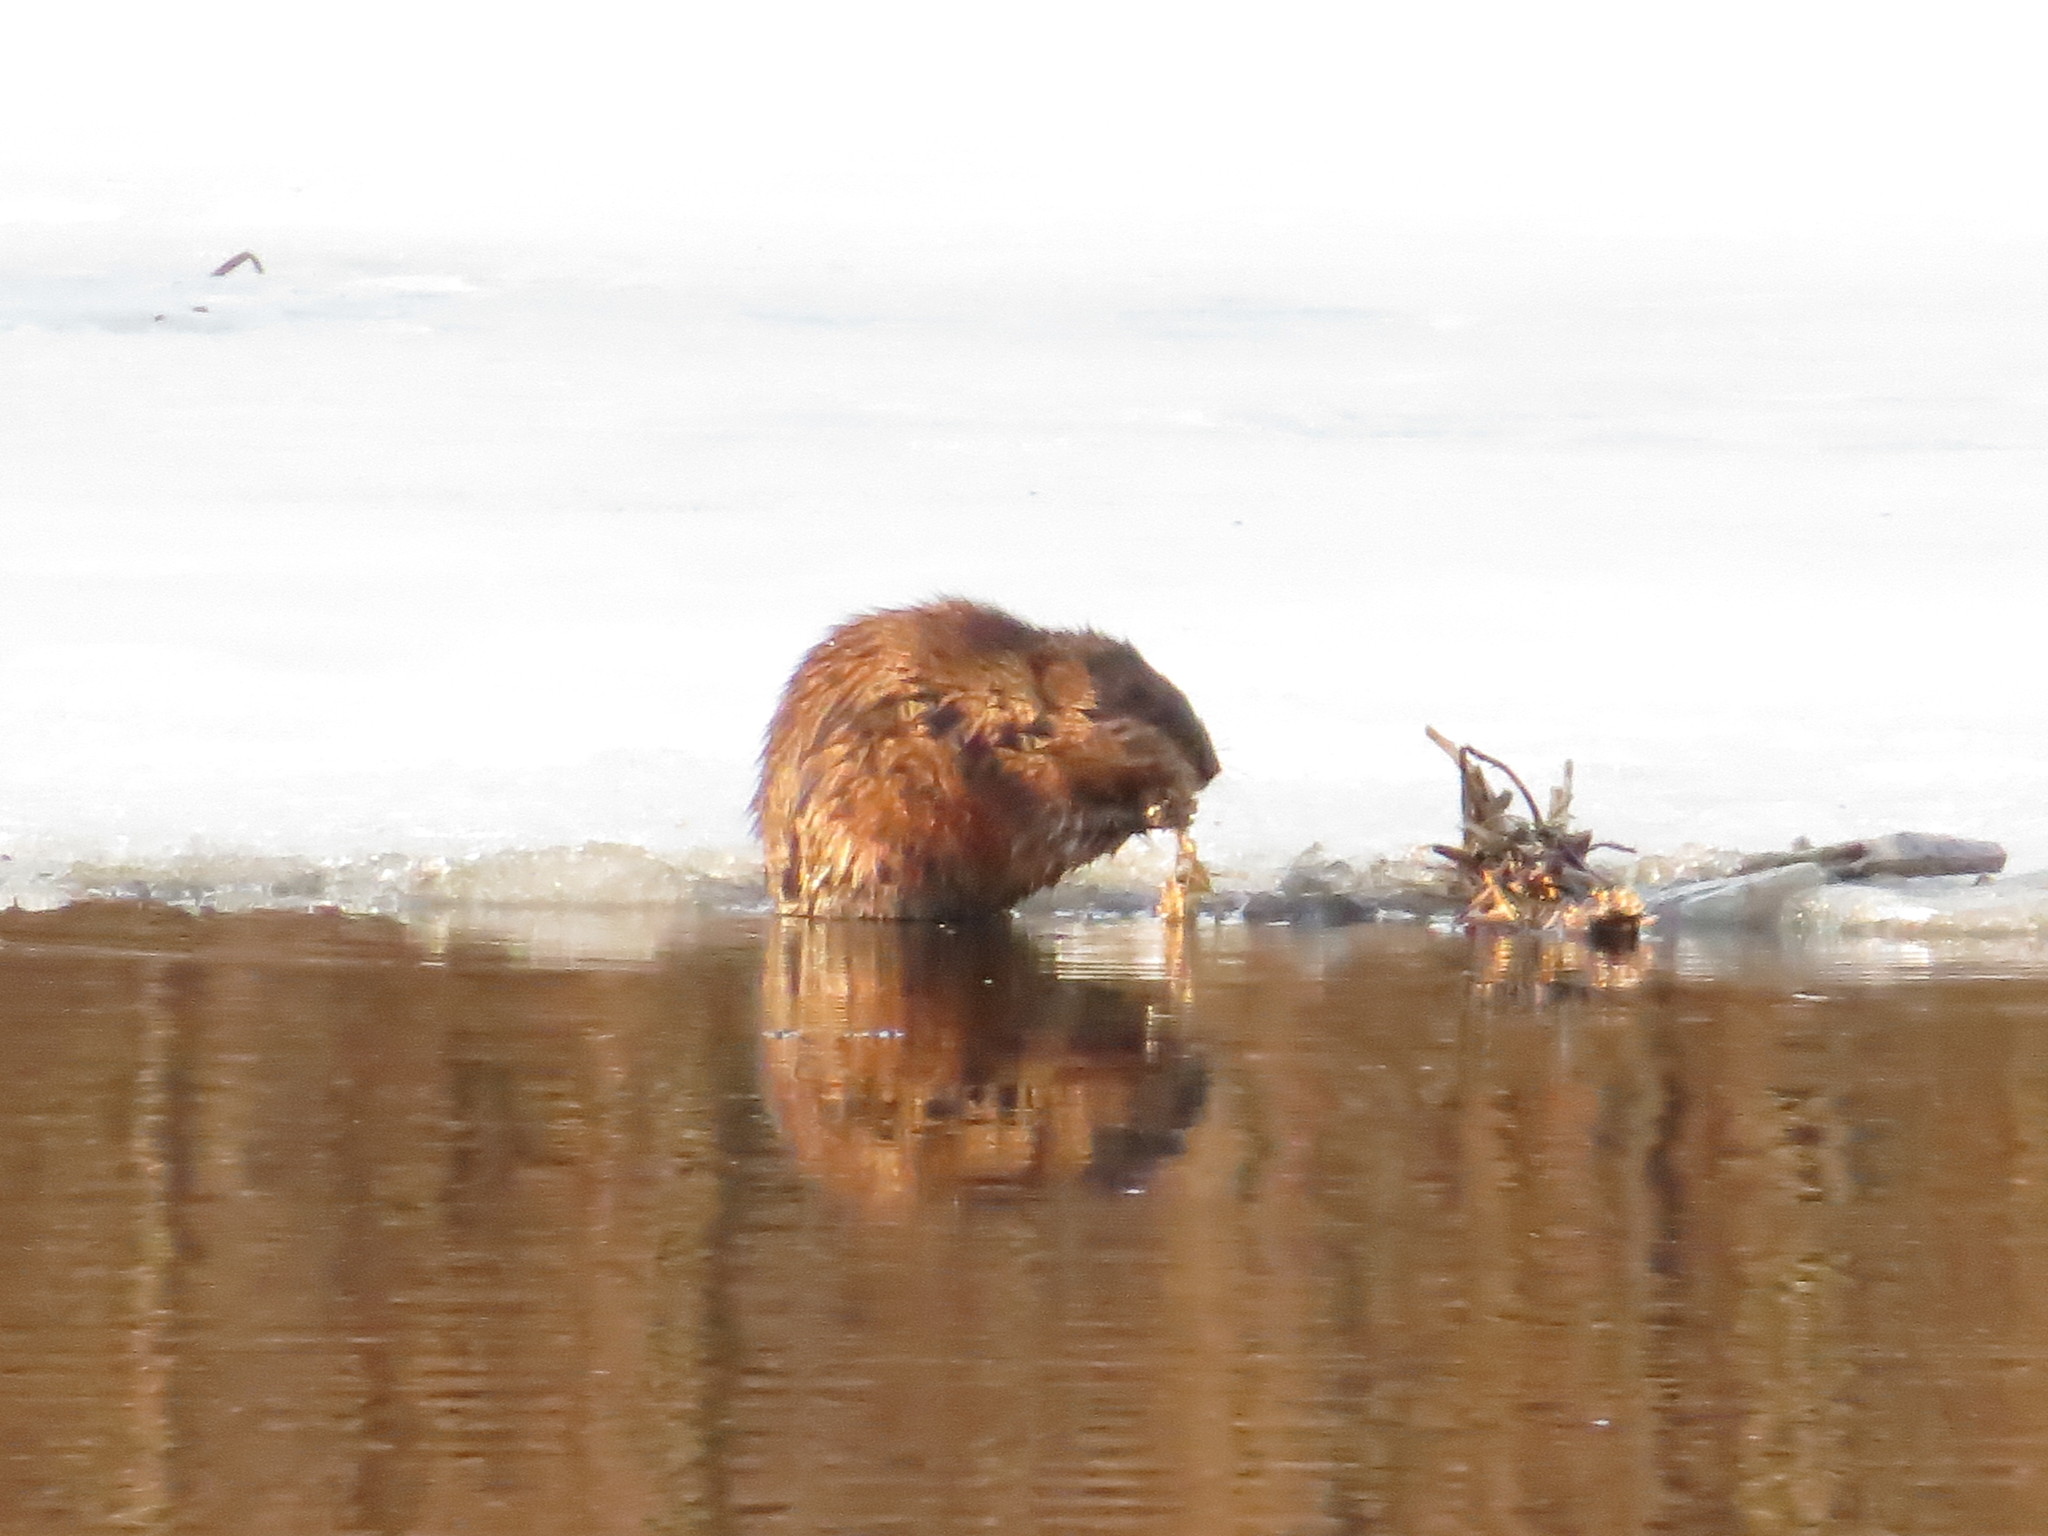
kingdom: Animalia
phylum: Chordata
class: Mammalia
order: Rodentia
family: Cricetidae
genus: Ondatra
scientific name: Ondatra zibethicus
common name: Muskrat
